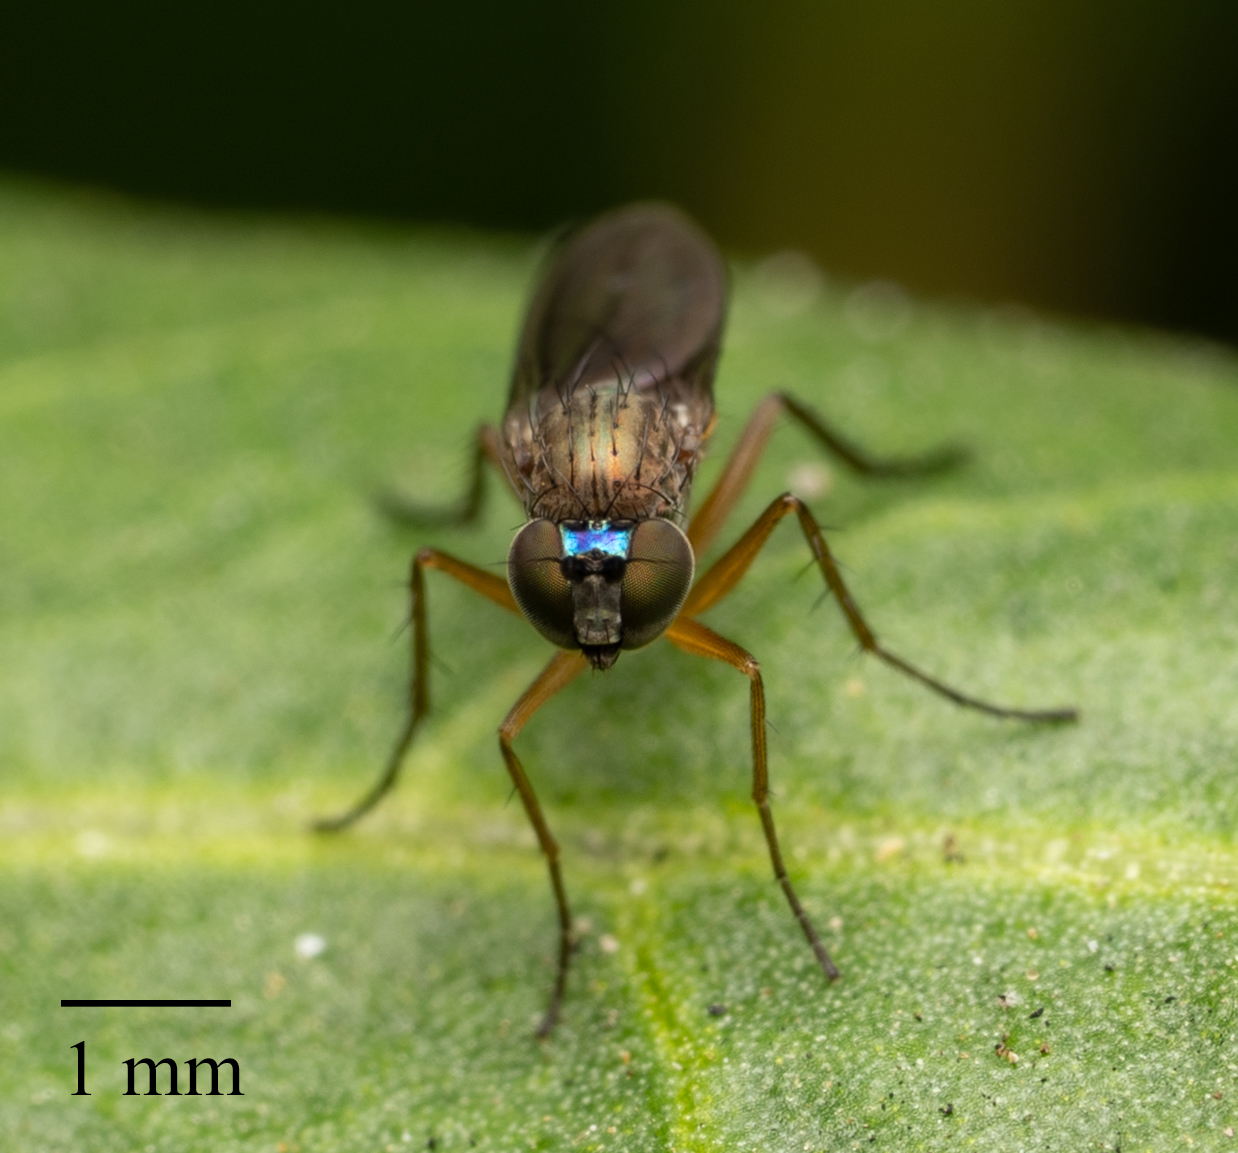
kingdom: Animalia
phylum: Arthropoda
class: Insecta
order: Diptera
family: Dolichopodidae
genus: Syntormon
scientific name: Syntormon flexibile
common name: Long-legged fly
